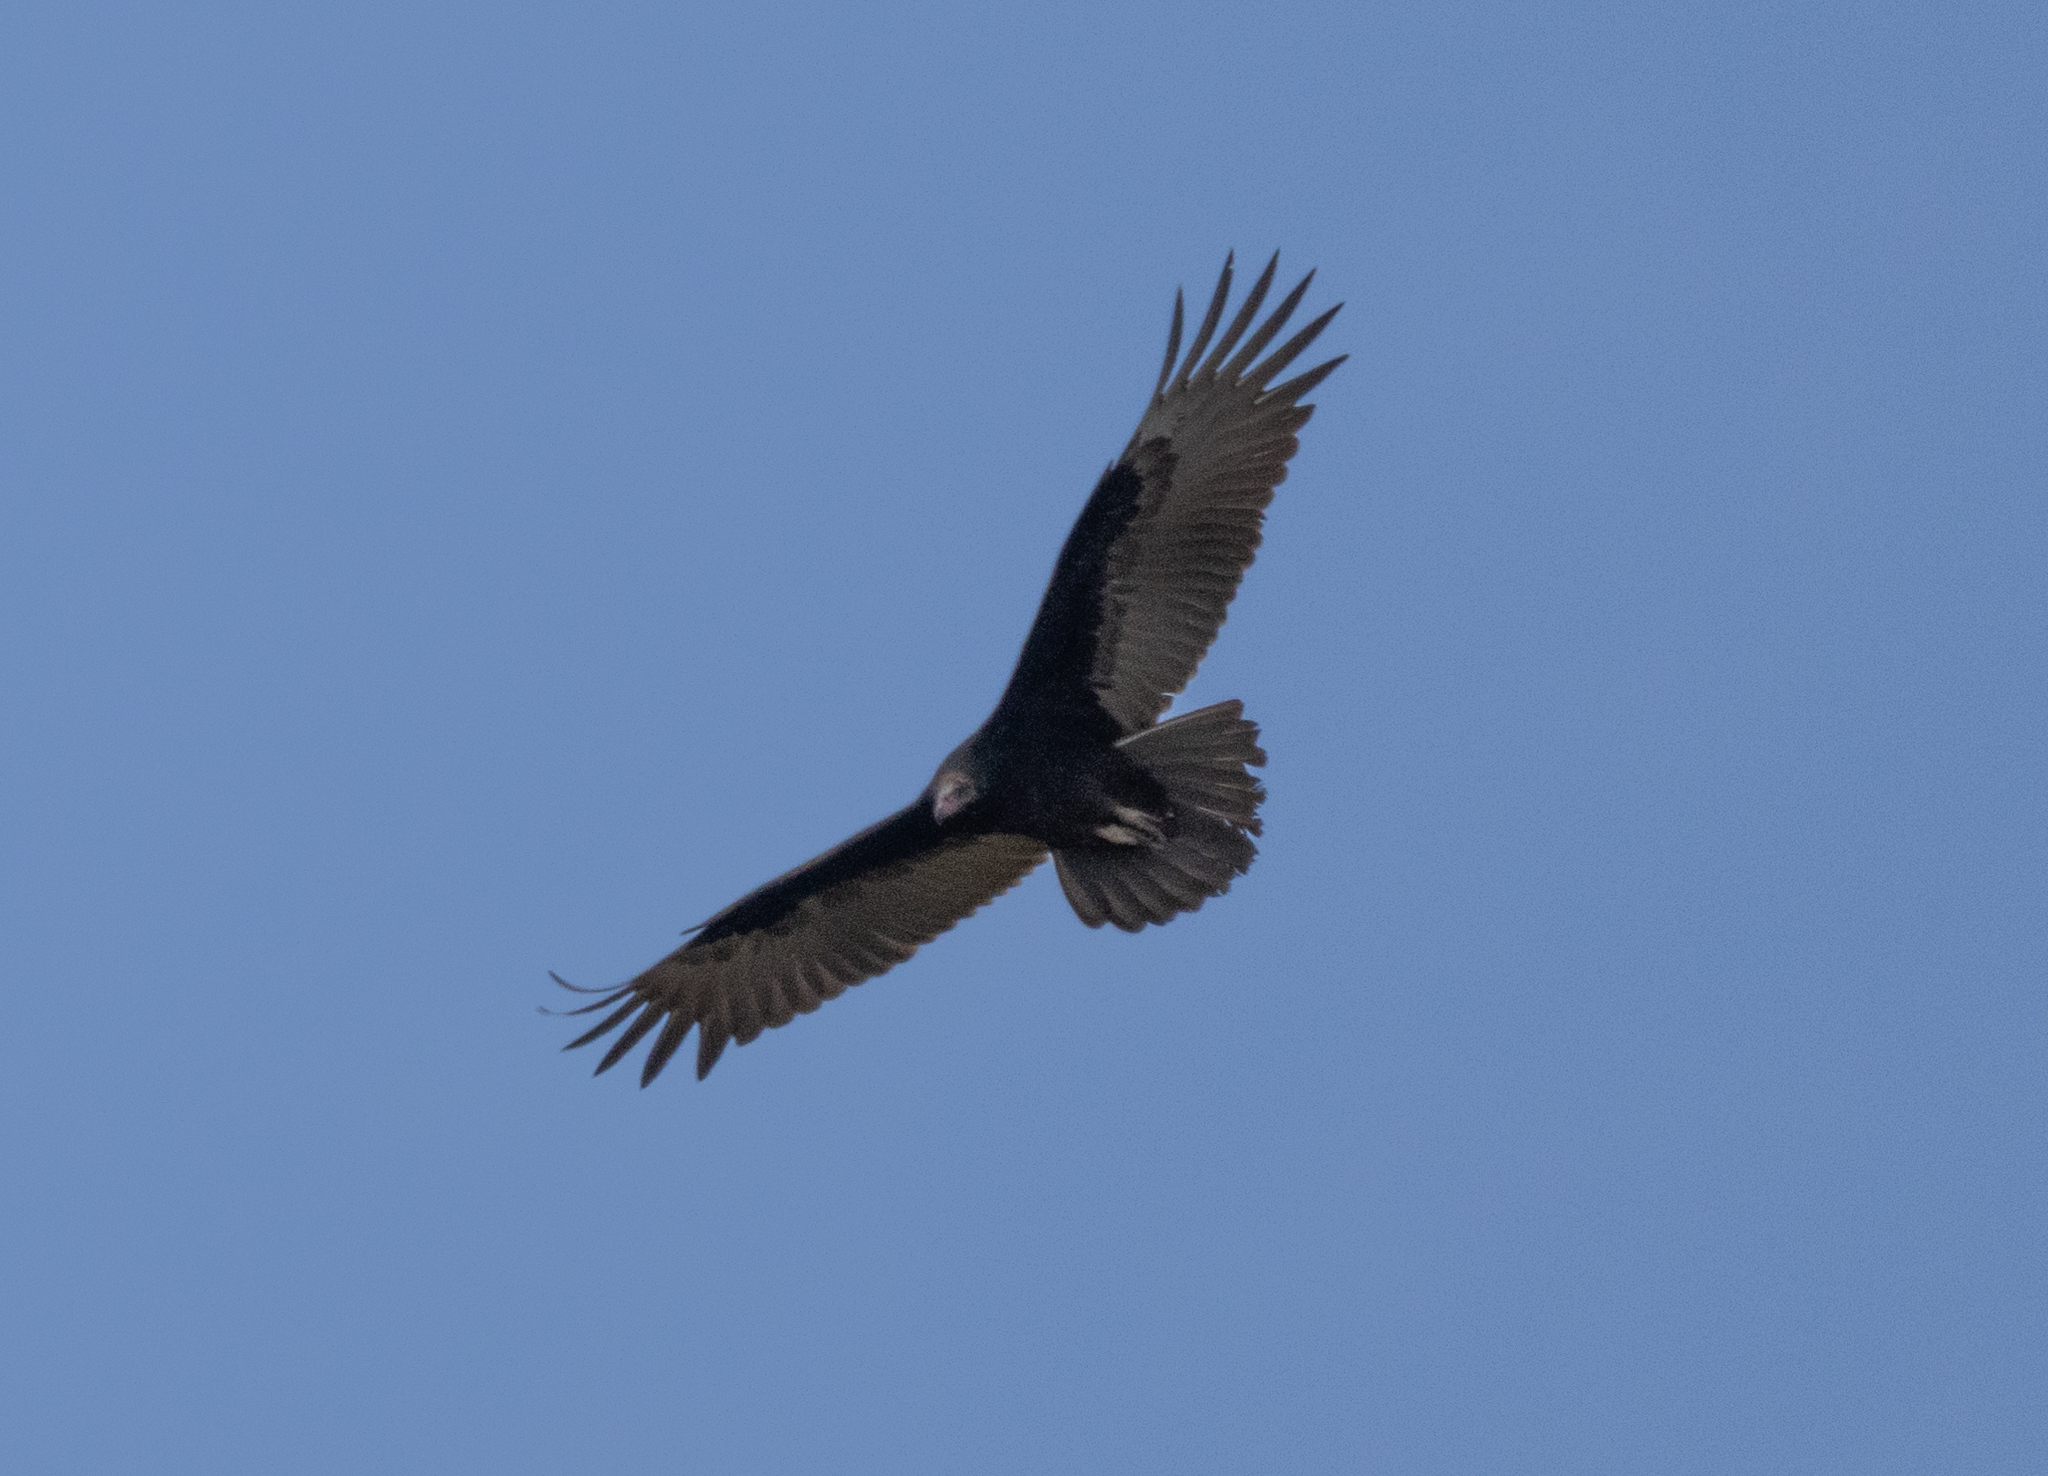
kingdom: Animalia
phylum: Chordata
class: Aves
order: Accipitriformes
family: Cathartidae
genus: Cathartes
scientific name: Cathartes aura
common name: Turkey vulture
